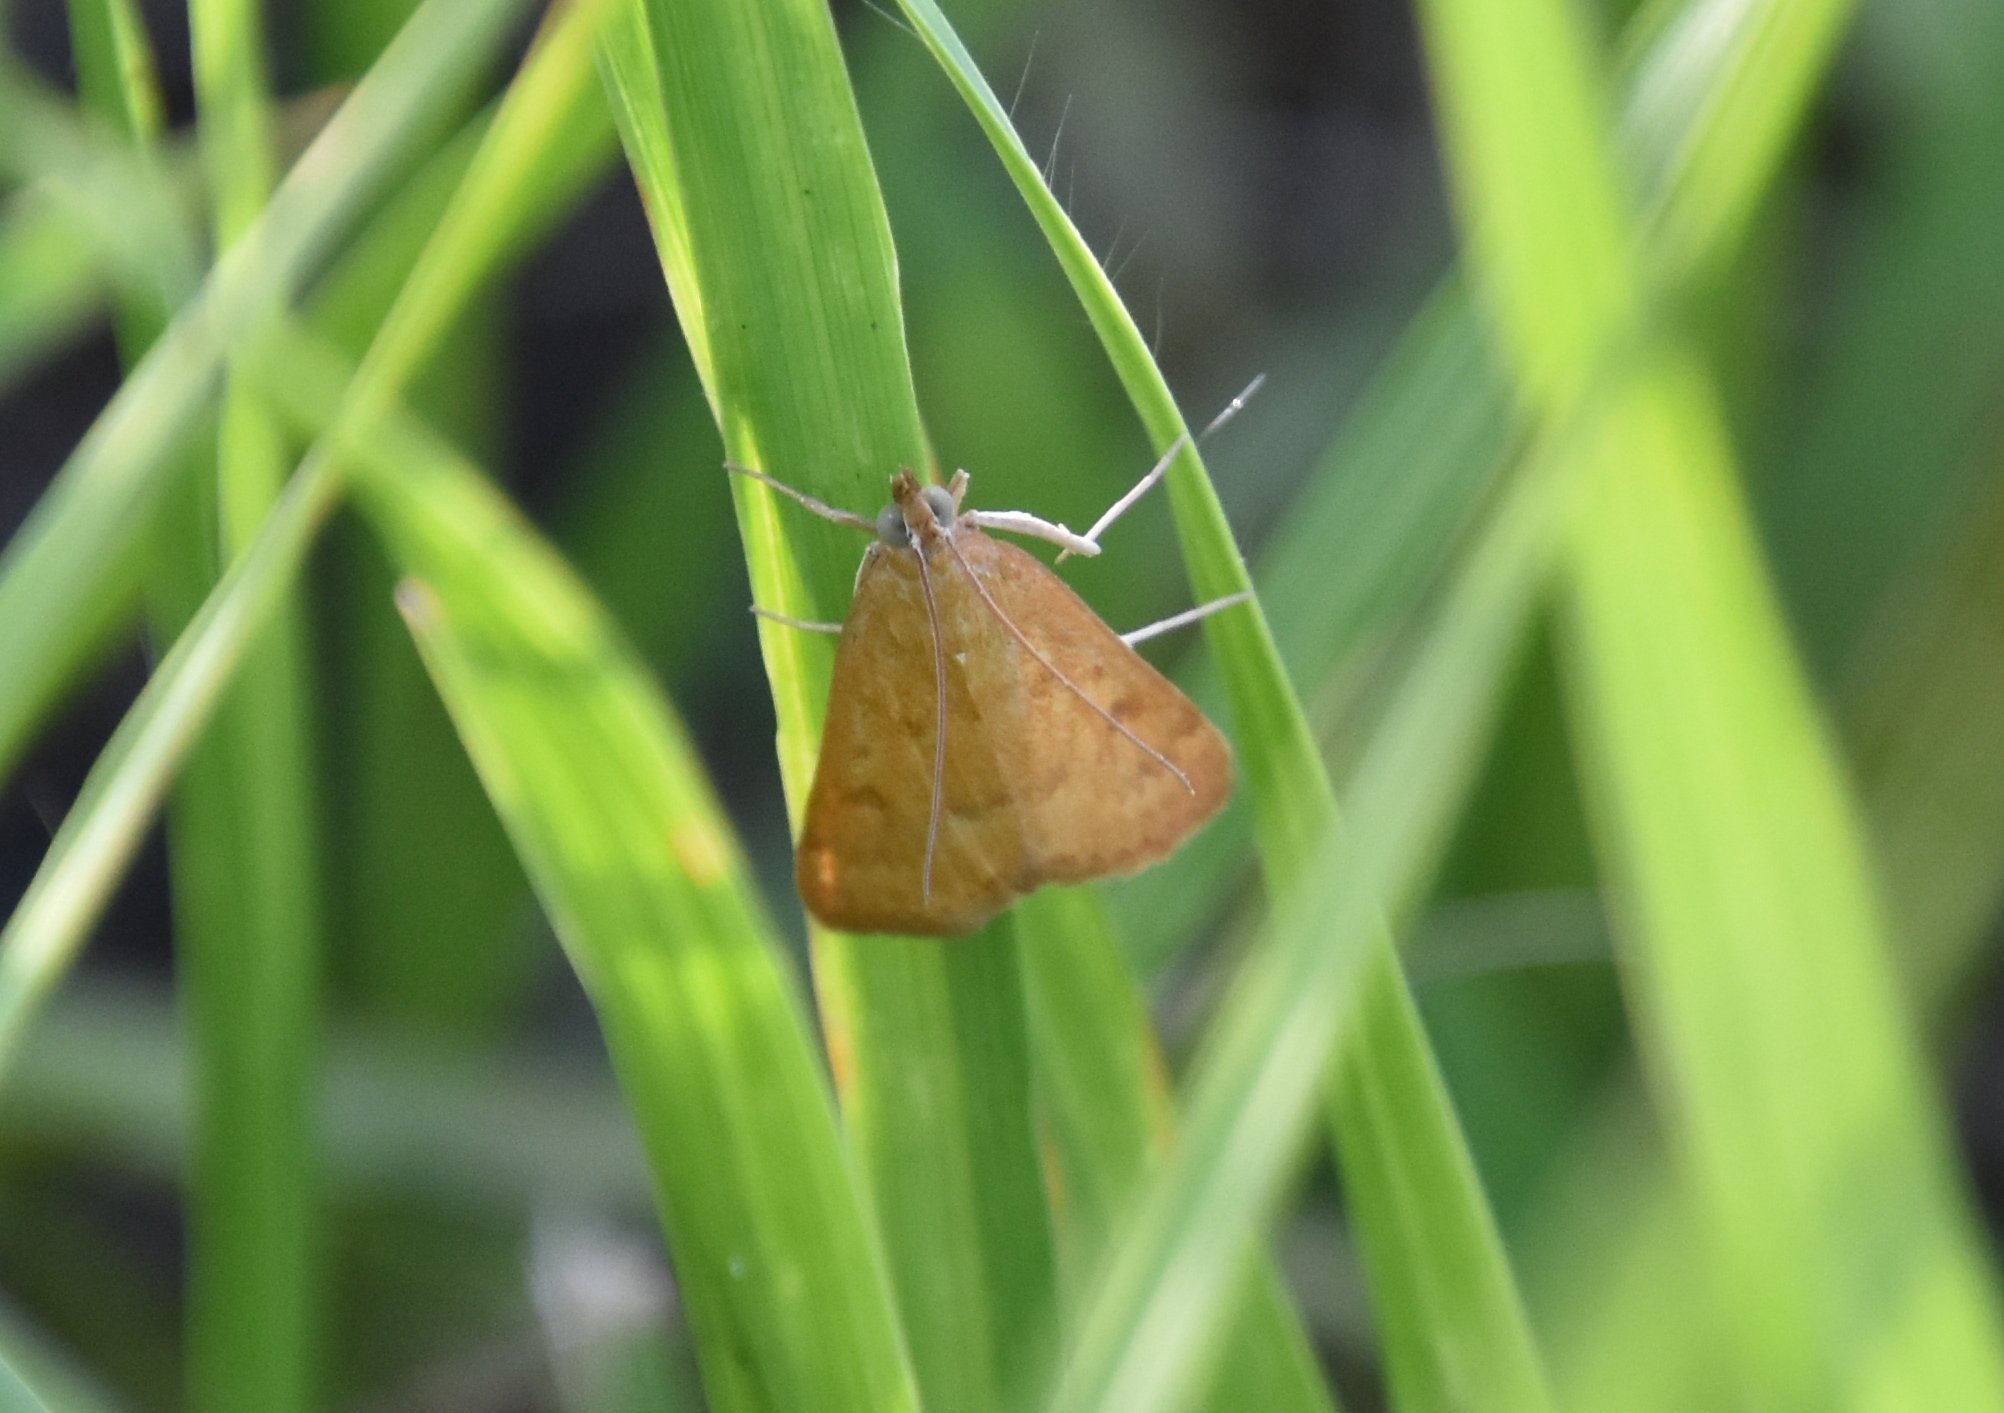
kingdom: Animalia
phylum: Arthropoda
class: Insecta
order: Lepidoptera
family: Crambidae
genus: Achyra
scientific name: Achyra rantalis
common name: Garden webworm
